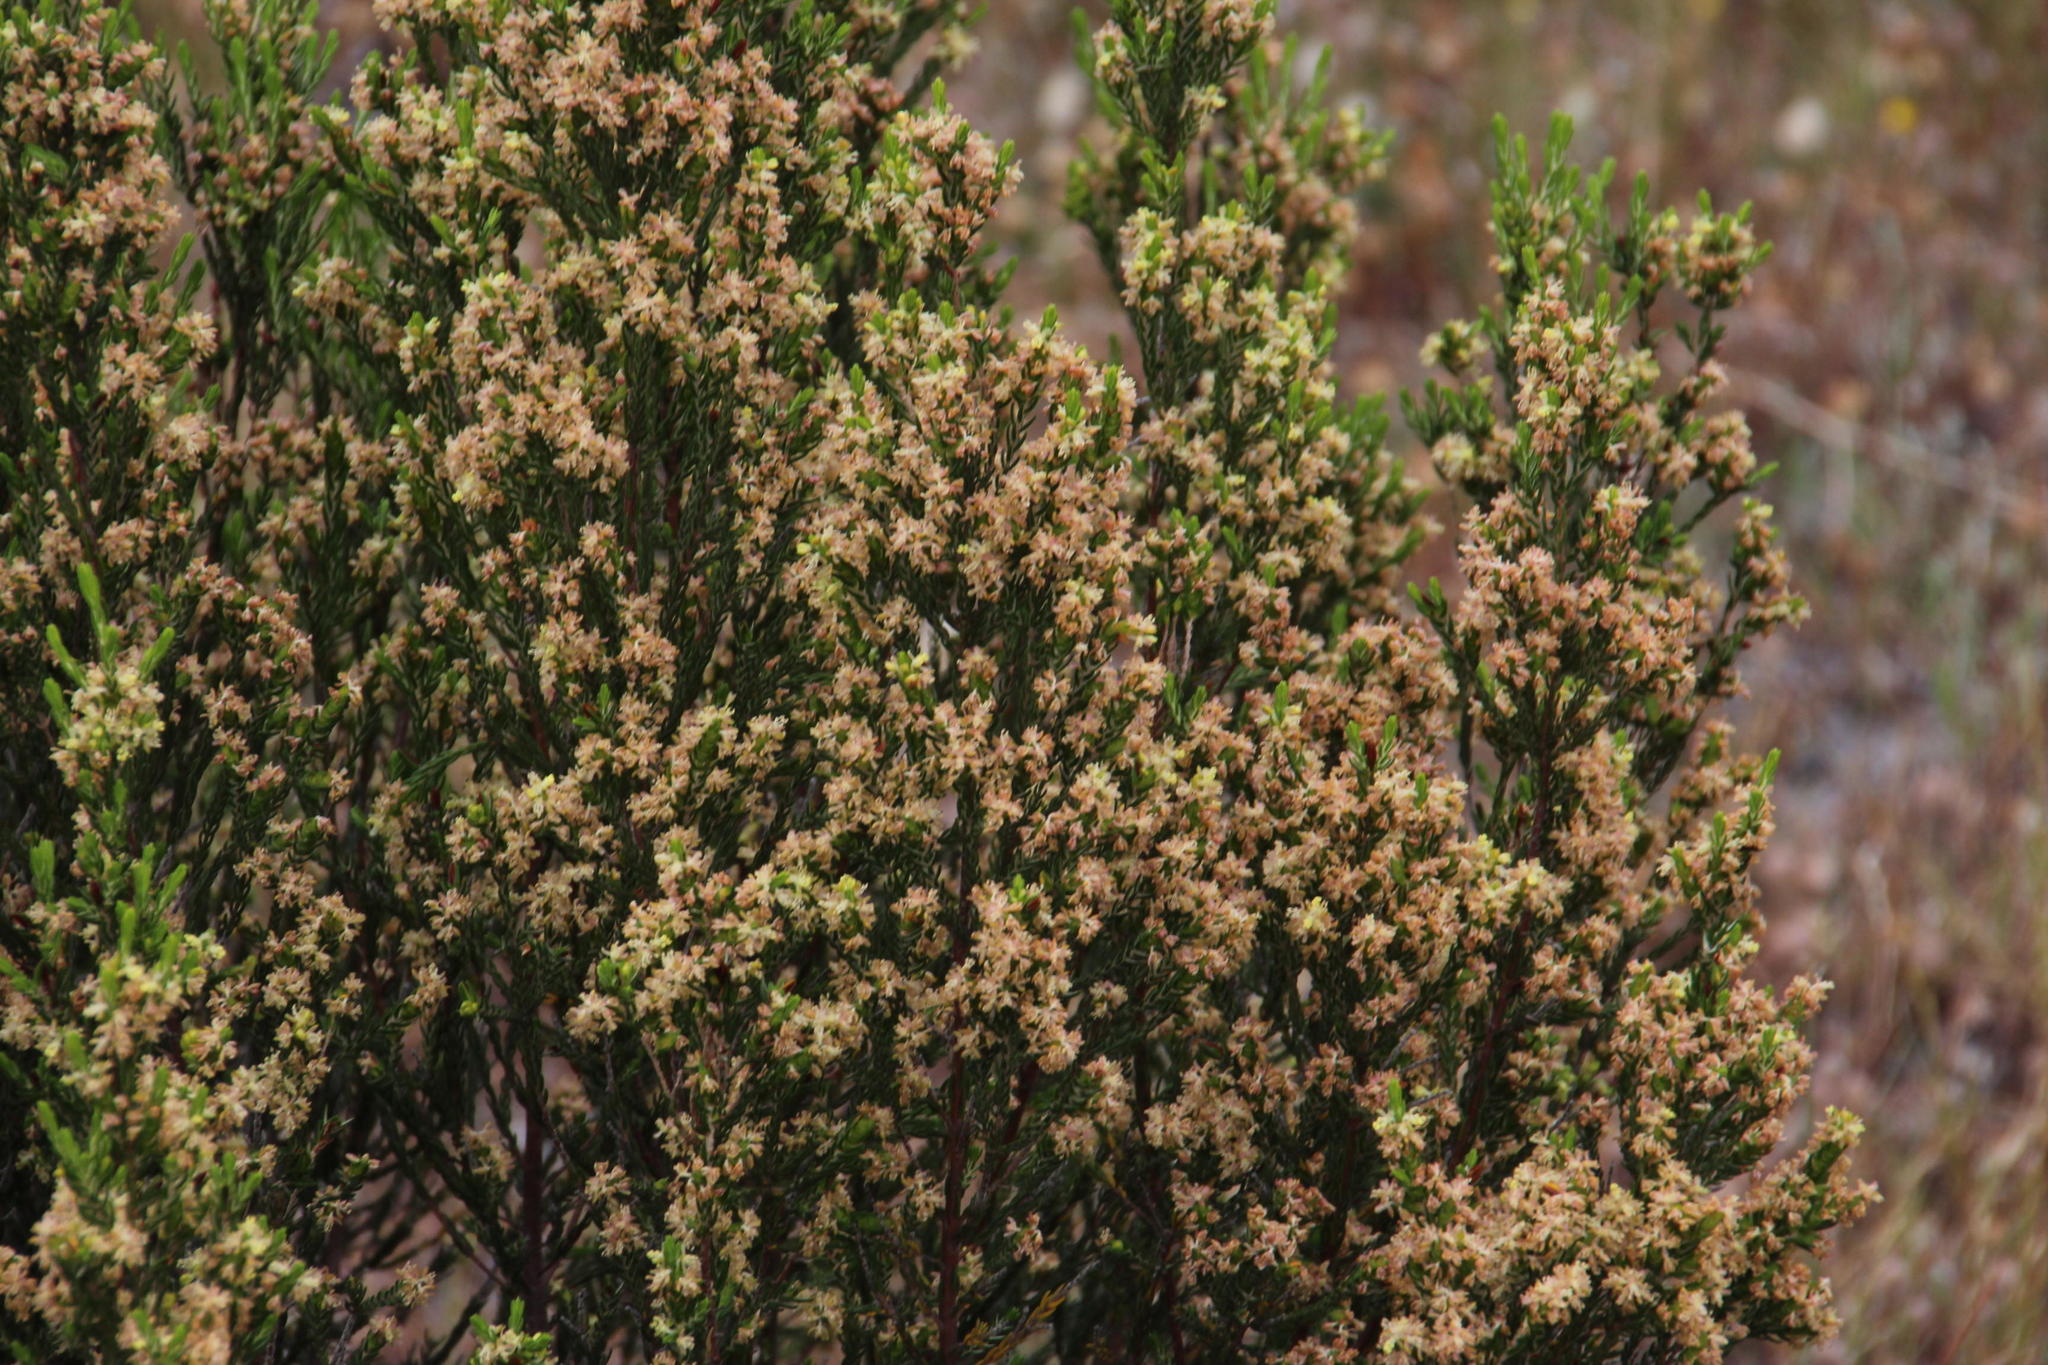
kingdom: Plantae
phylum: Tracheophyta
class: Magnoliopsida
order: Malvales
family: Thymelaeaceae
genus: Passerina
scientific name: Passerina corymbosa
